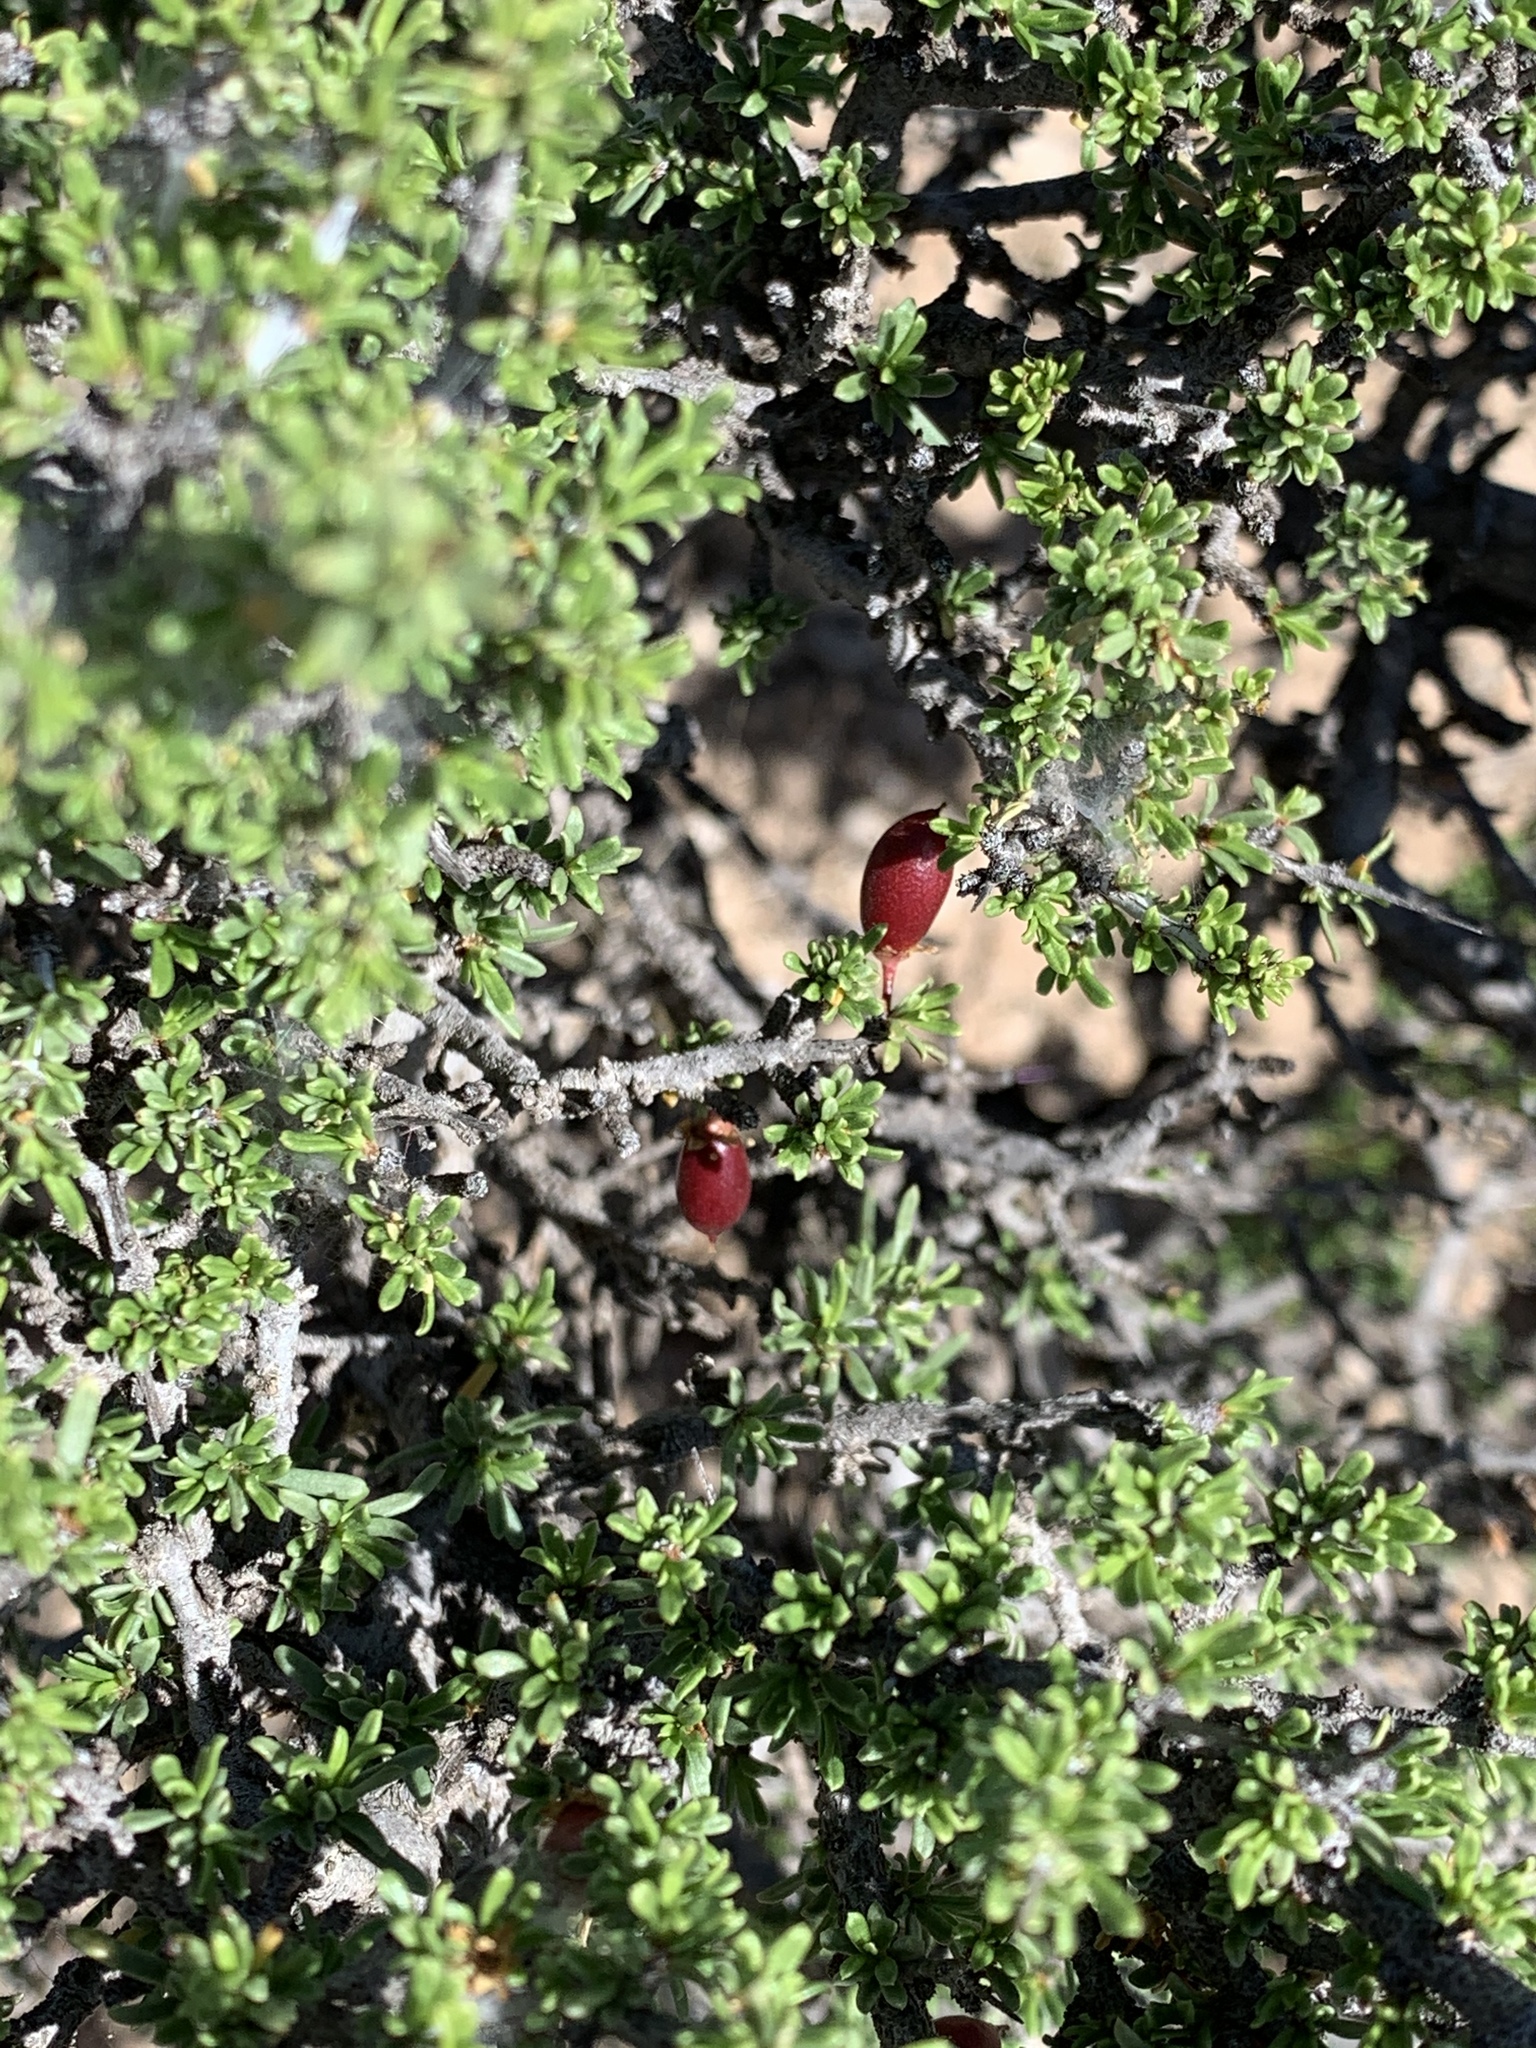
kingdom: Plantae
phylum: Tracheophyta
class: Magnoliopsida
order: Rosales
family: Rhamnaceae
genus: Condalia
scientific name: Condalia ericoides
